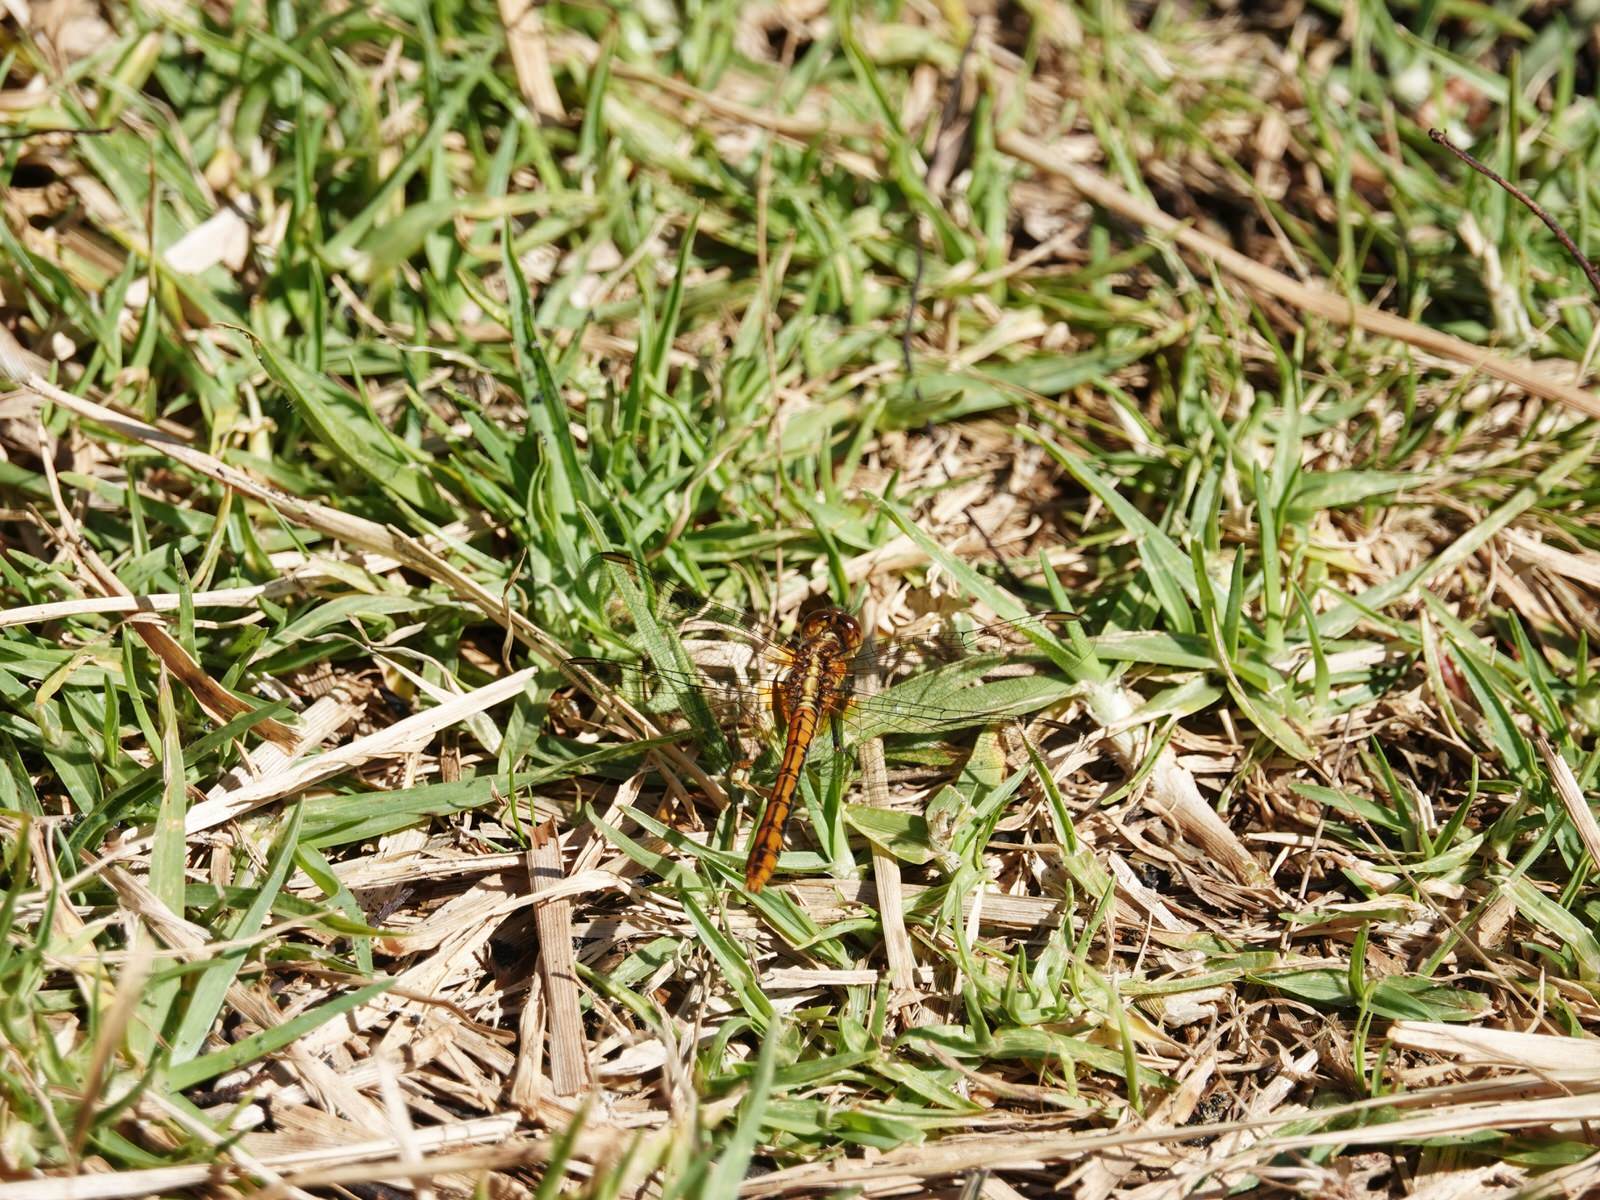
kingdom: Animalia
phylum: Arthropoda
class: Insecta
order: Odonata
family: Libellulidae
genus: Diplacodes
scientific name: Diplacodes bipunctata
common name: Red percher dragonfly
